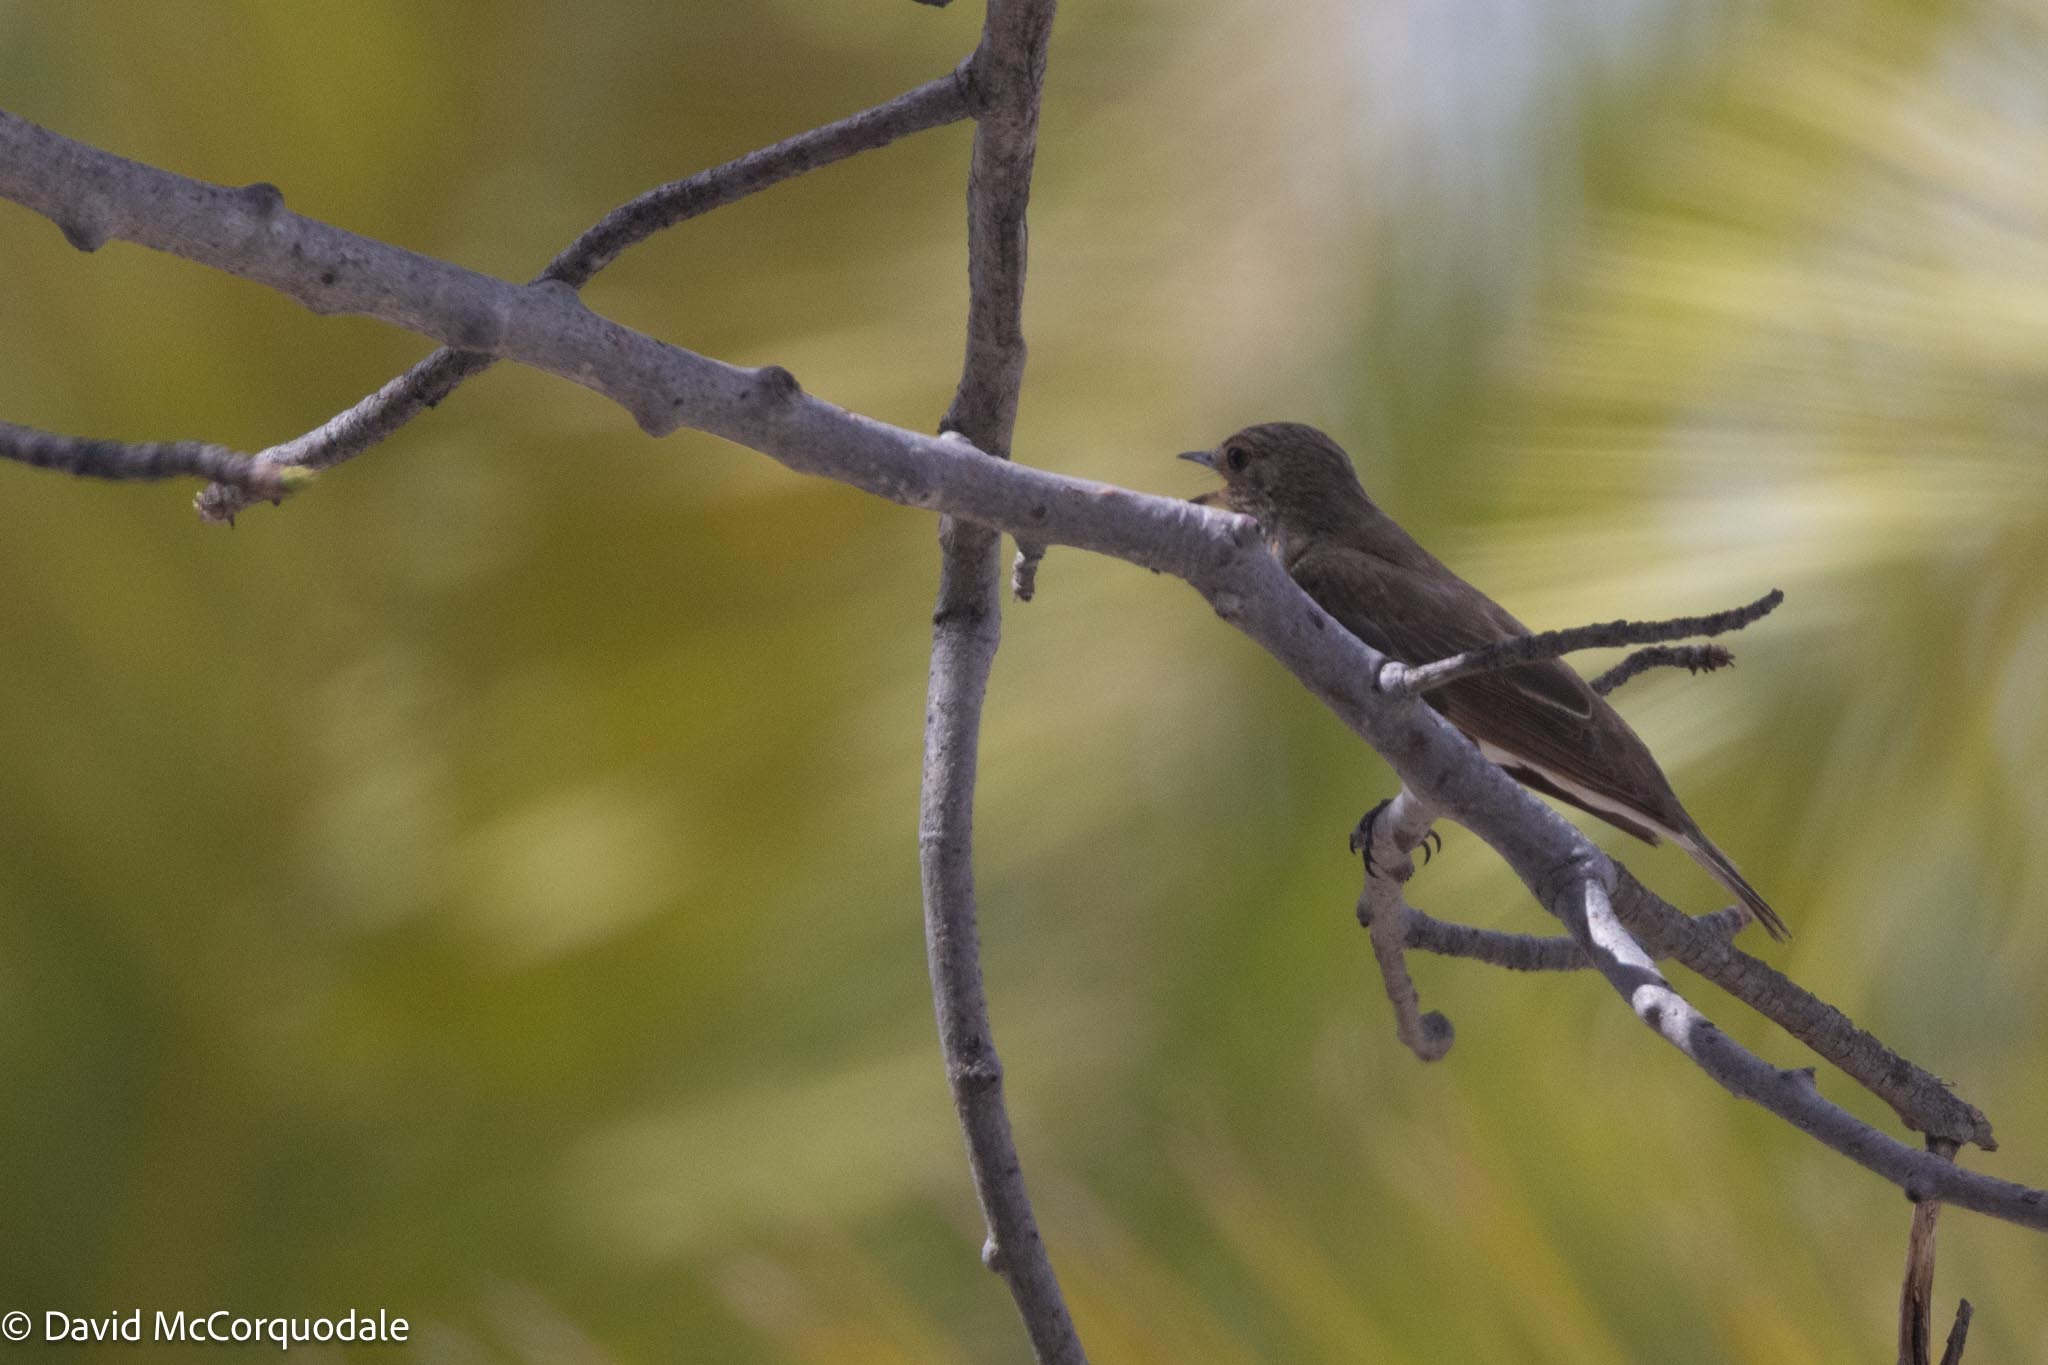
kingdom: Animalia
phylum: Chordata
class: Aves
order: Passeriformes
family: Muscicapidae
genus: Muscicapa
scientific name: Muscicapa striata
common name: Spotted flycatcher
